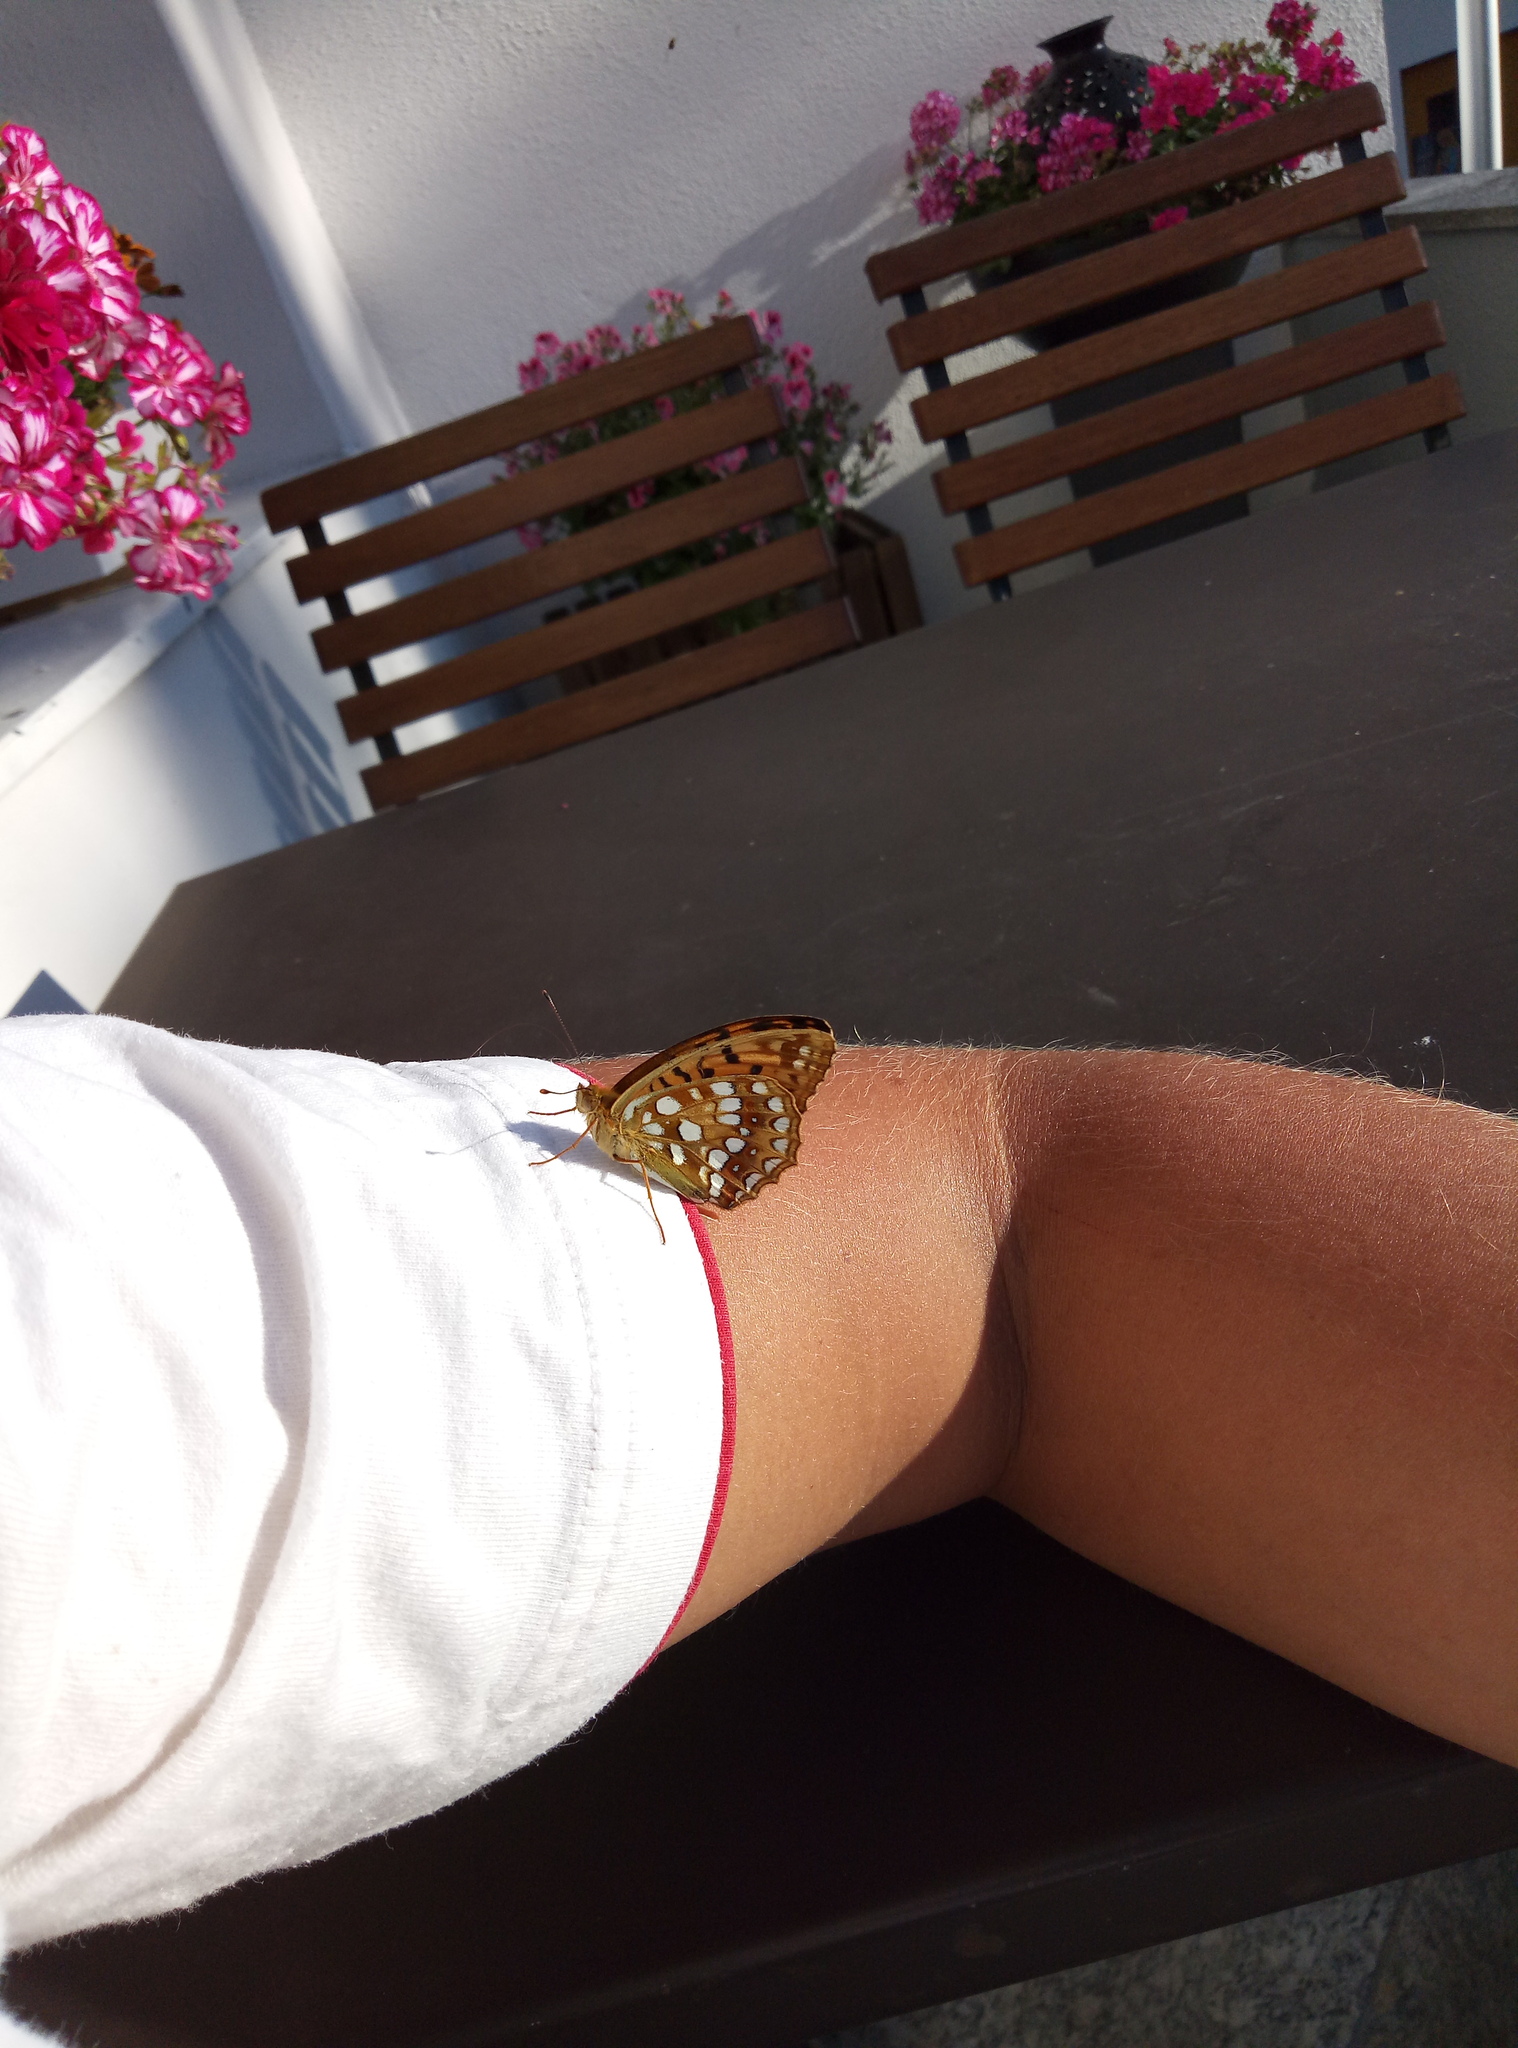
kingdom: Animalia
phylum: Arthropoda
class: Insecta
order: Lepidoptera
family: Nymphalidae
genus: Fabriciana
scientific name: Fabriciana adippe
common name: High brown fritillary
